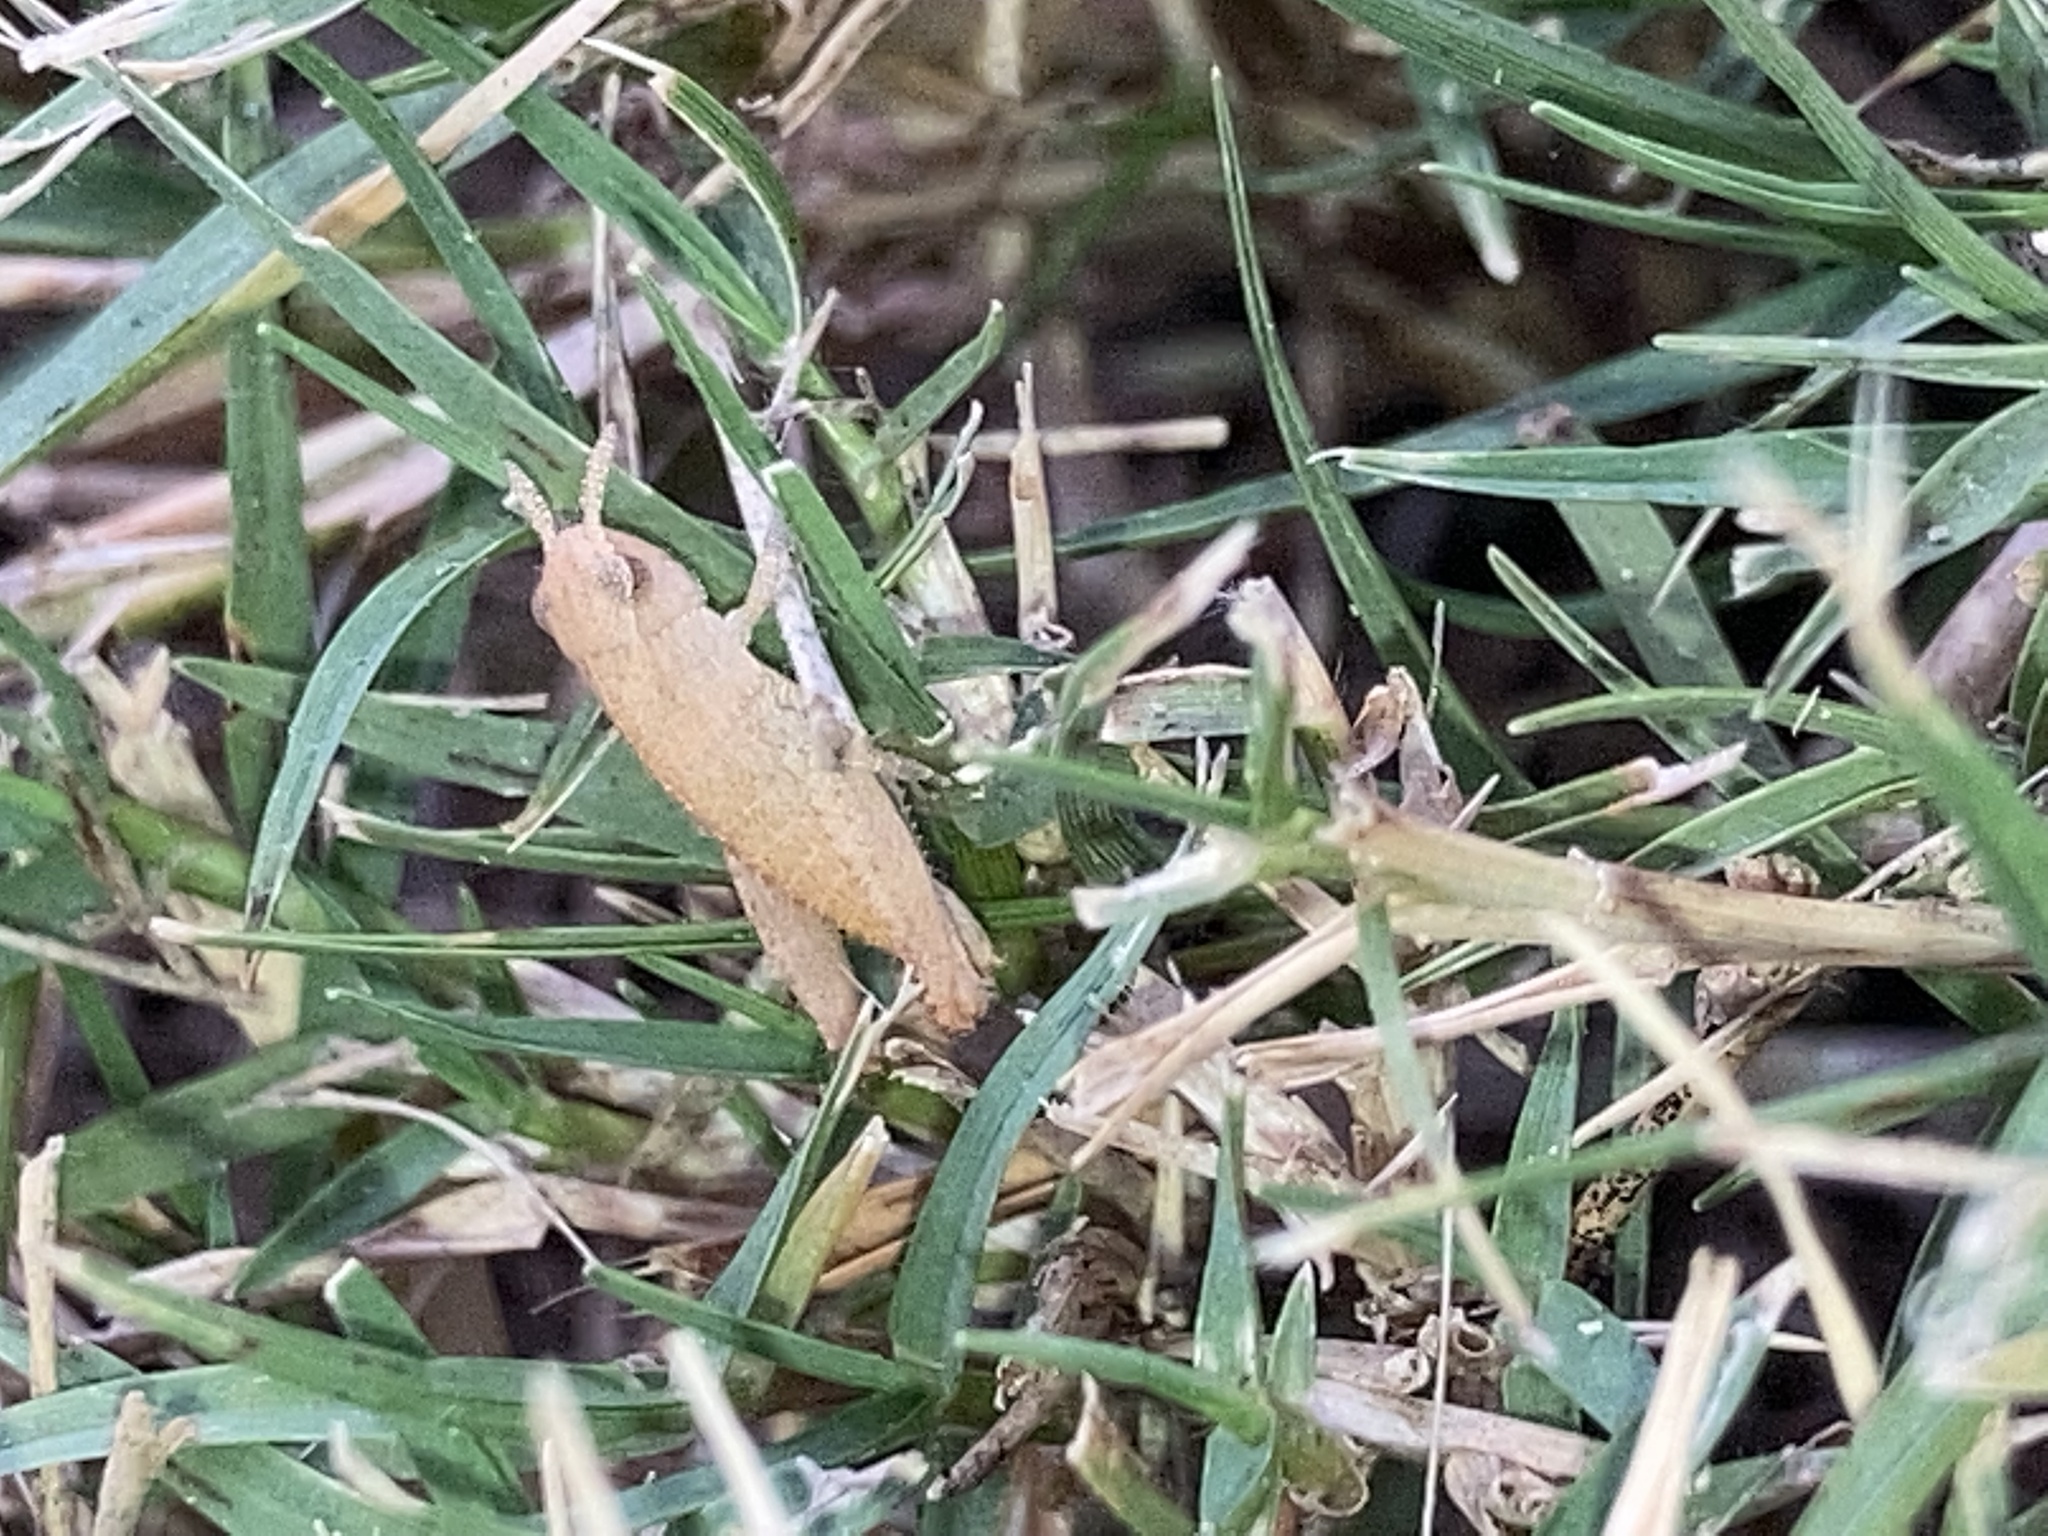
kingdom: Animalia
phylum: Arthropoda
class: Insecta
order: Orthoptera
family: Acrididae
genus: Chortophaga
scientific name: Chortophaga viridifasciata
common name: Green-striped grasshopper
